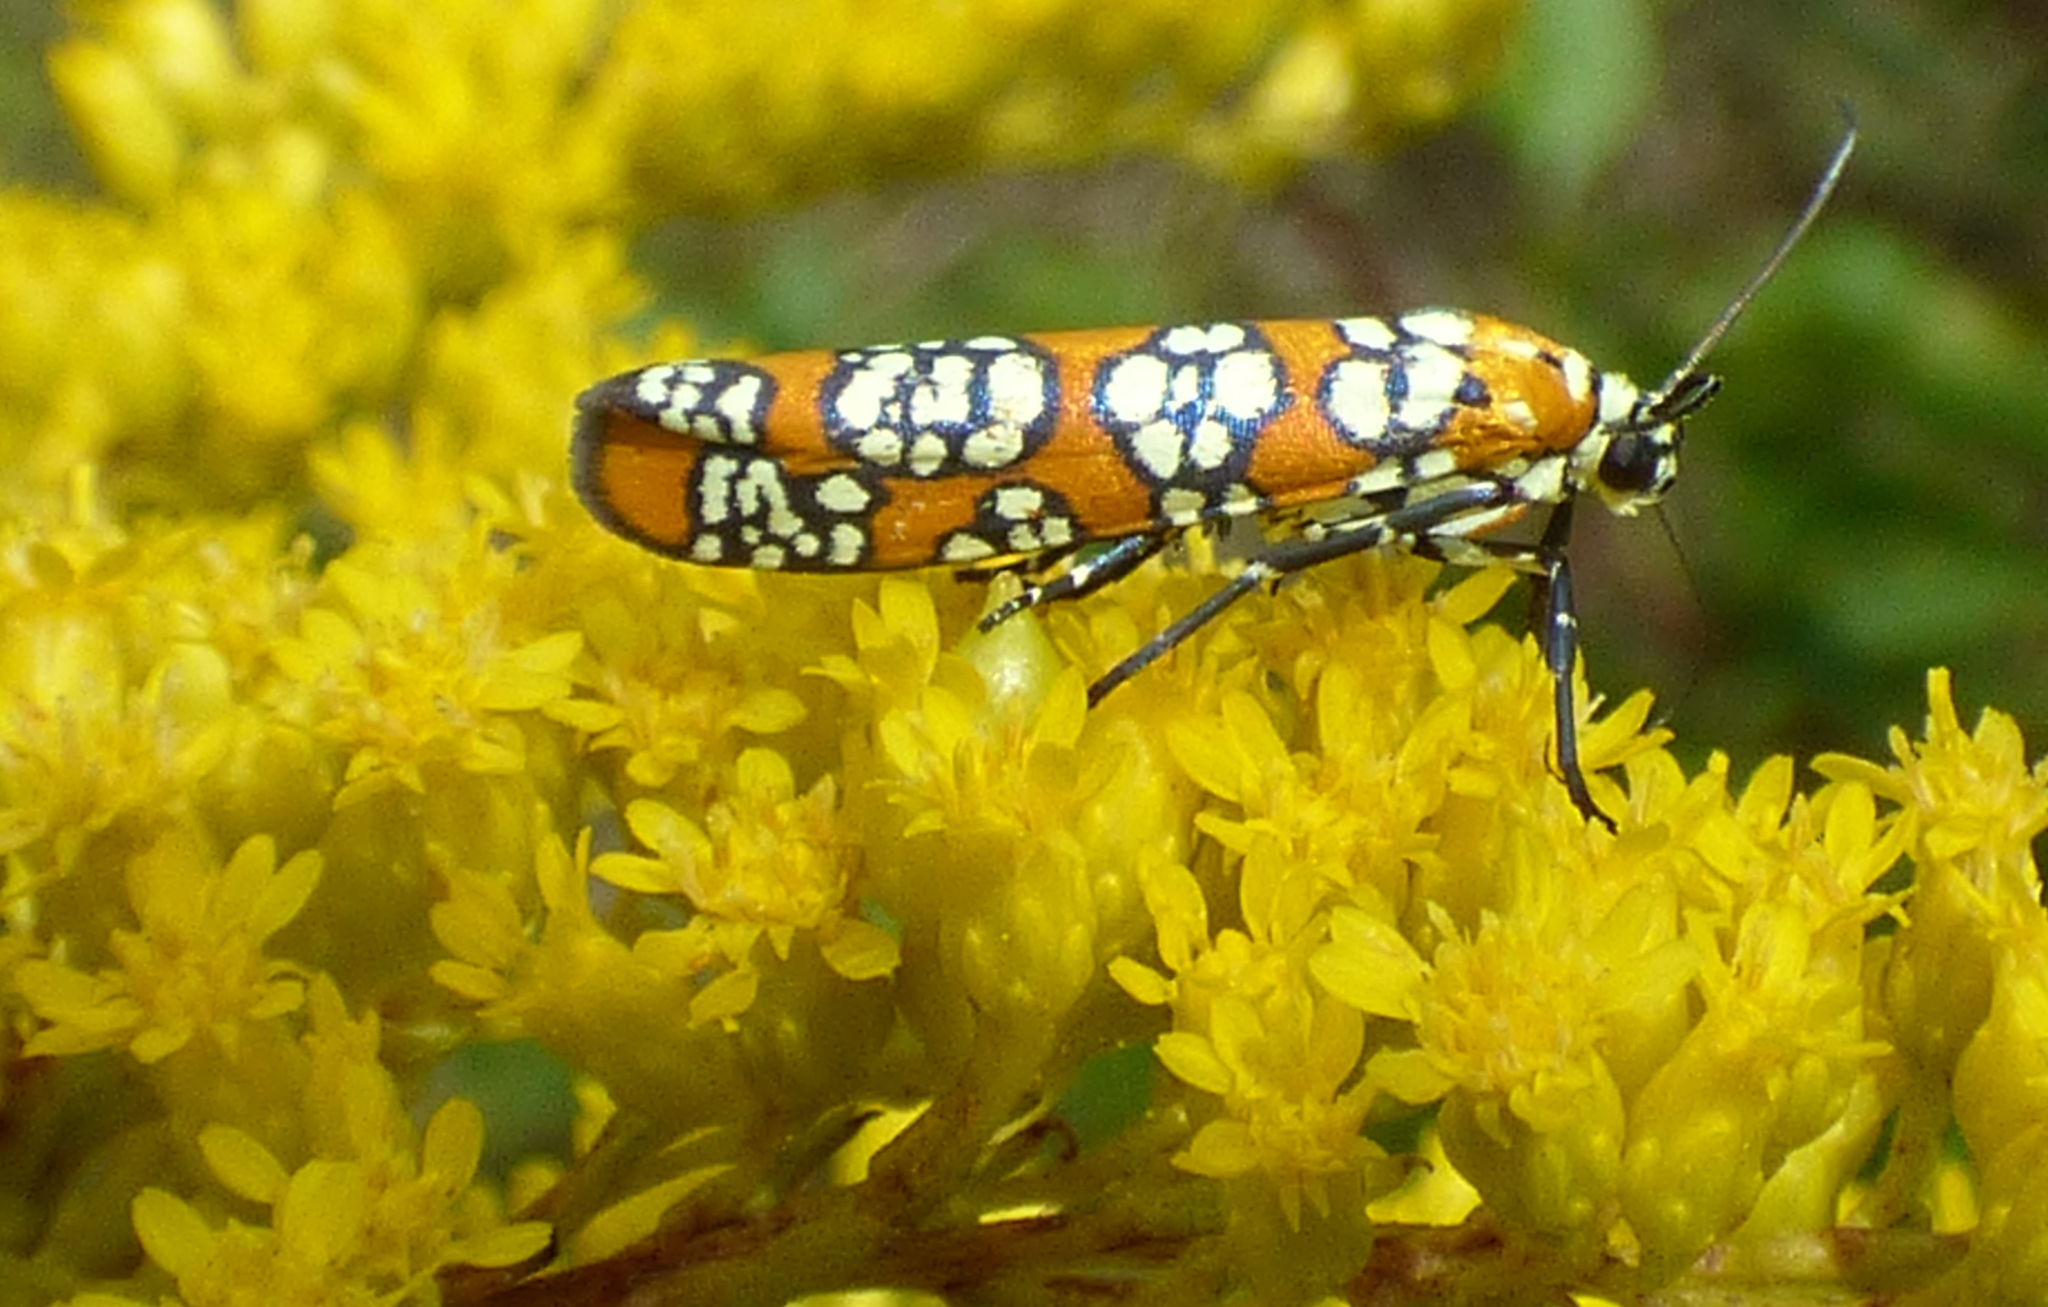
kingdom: Animalia
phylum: Arthropoda
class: Insecta
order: Lepidoptera
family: Attevidae
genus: Atteva
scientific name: Atteva punctella
